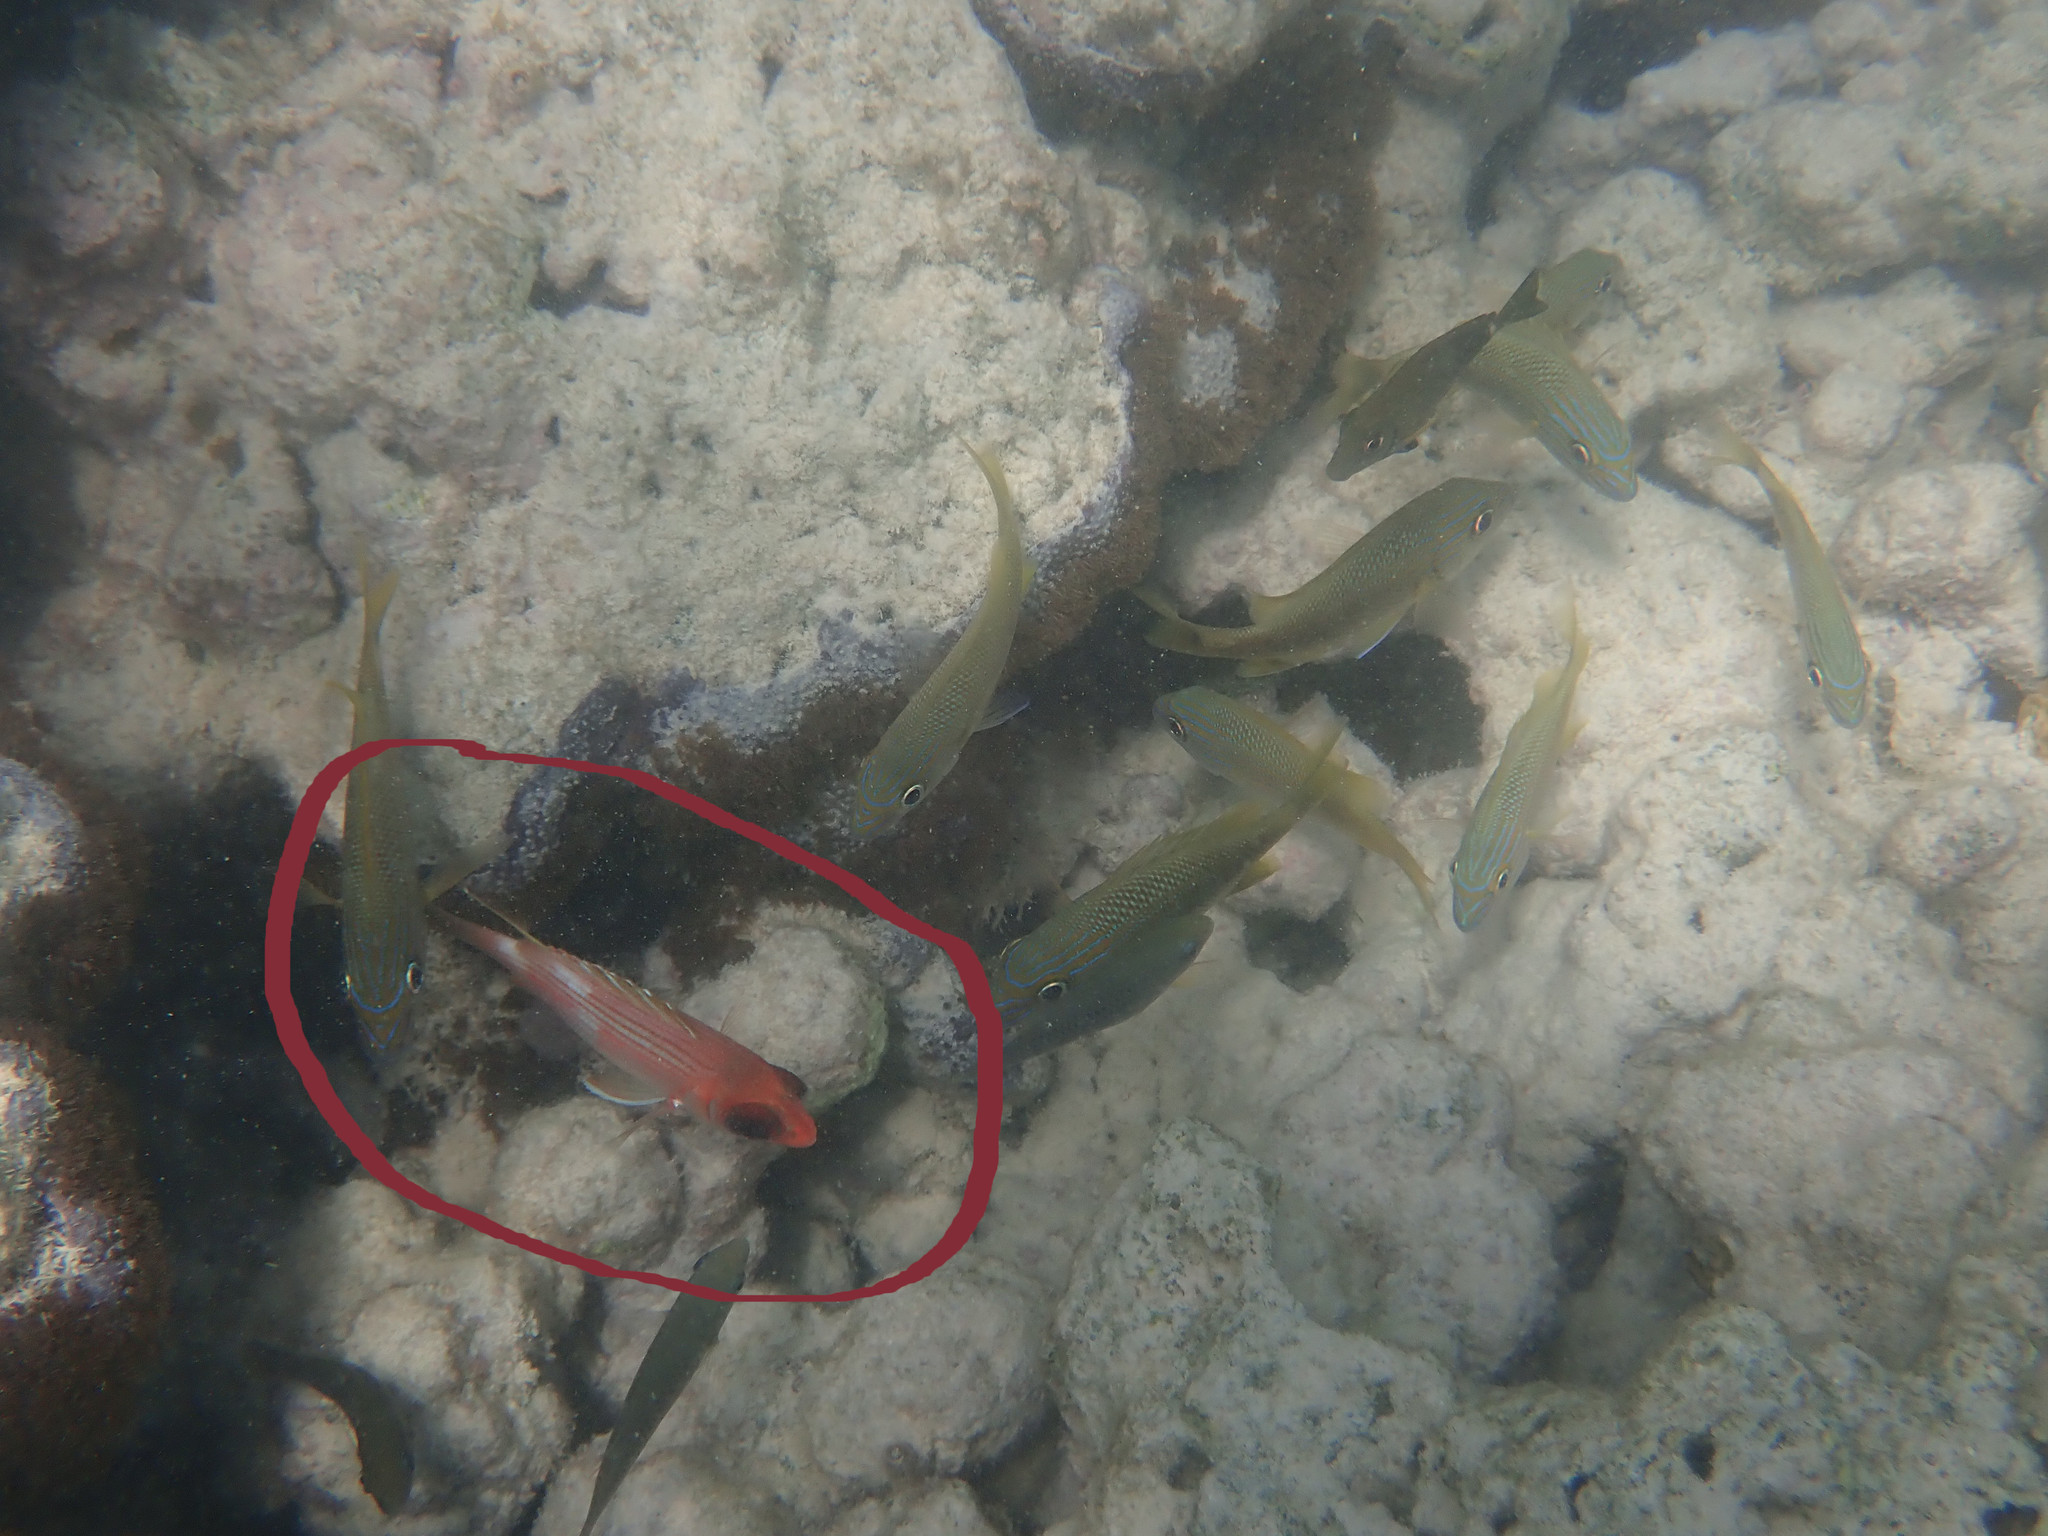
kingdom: Animalia
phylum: Chordata
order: Beryciformes
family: Holocentridae
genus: Holocentrus
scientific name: Holocentrus rufus
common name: Longspine squirrelfish
